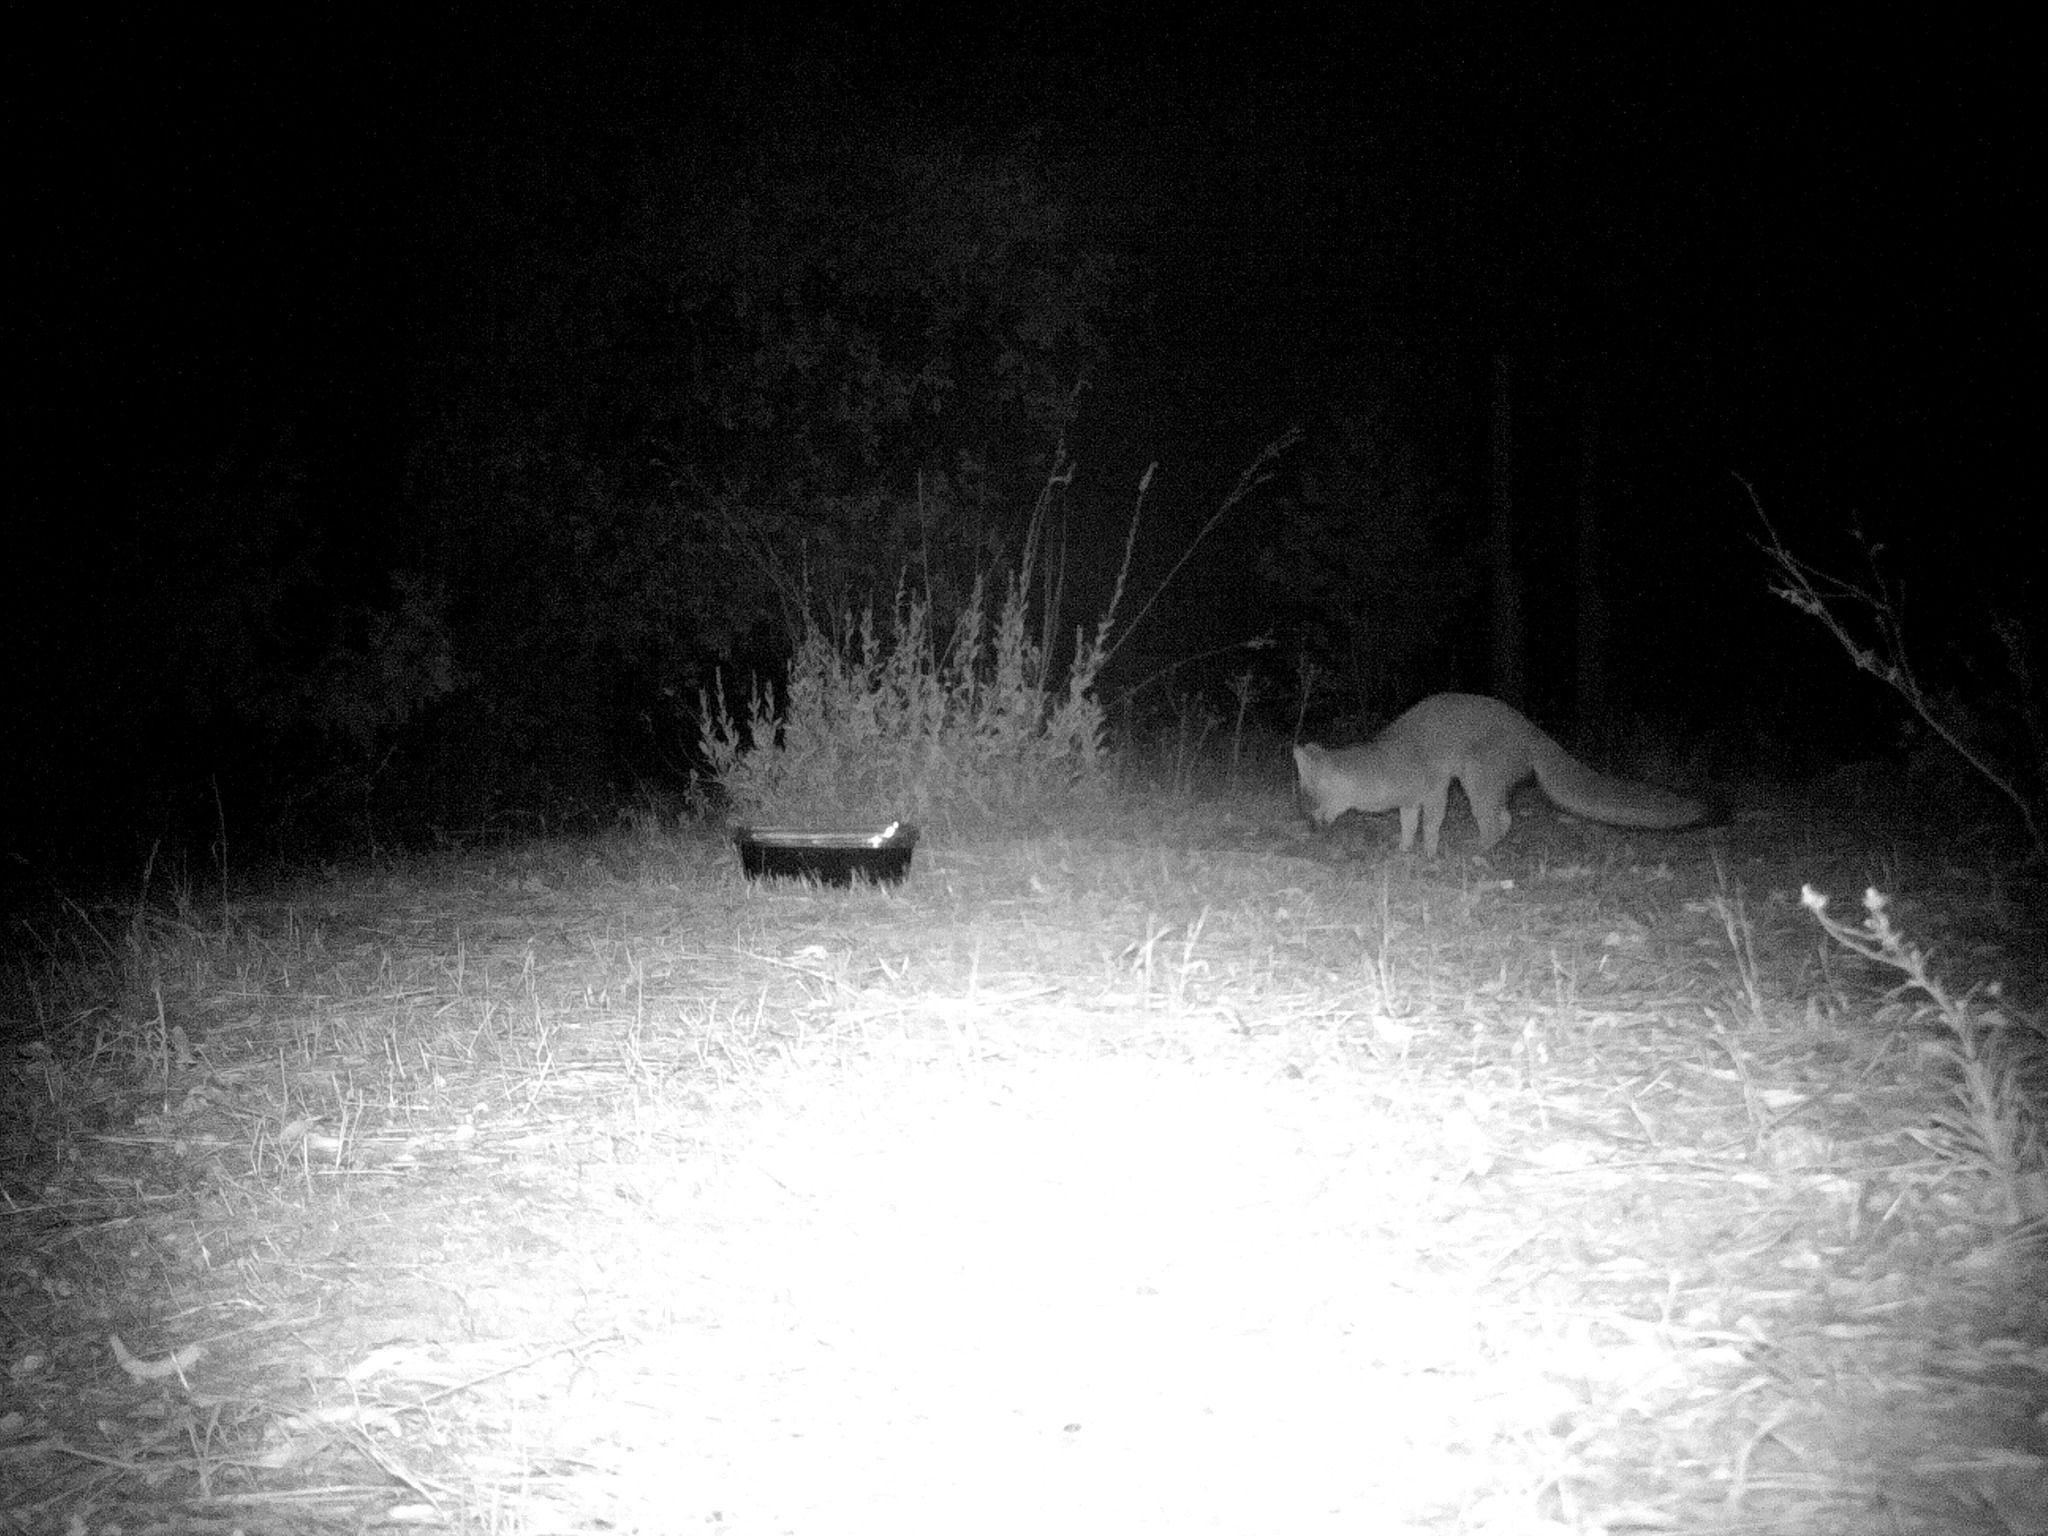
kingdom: Animalia
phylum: Chordata
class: Mammalia
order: Carnivora
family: Canidae
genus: Urocyon
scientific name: Urocyon cinereoargenteus
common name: Gray fox
